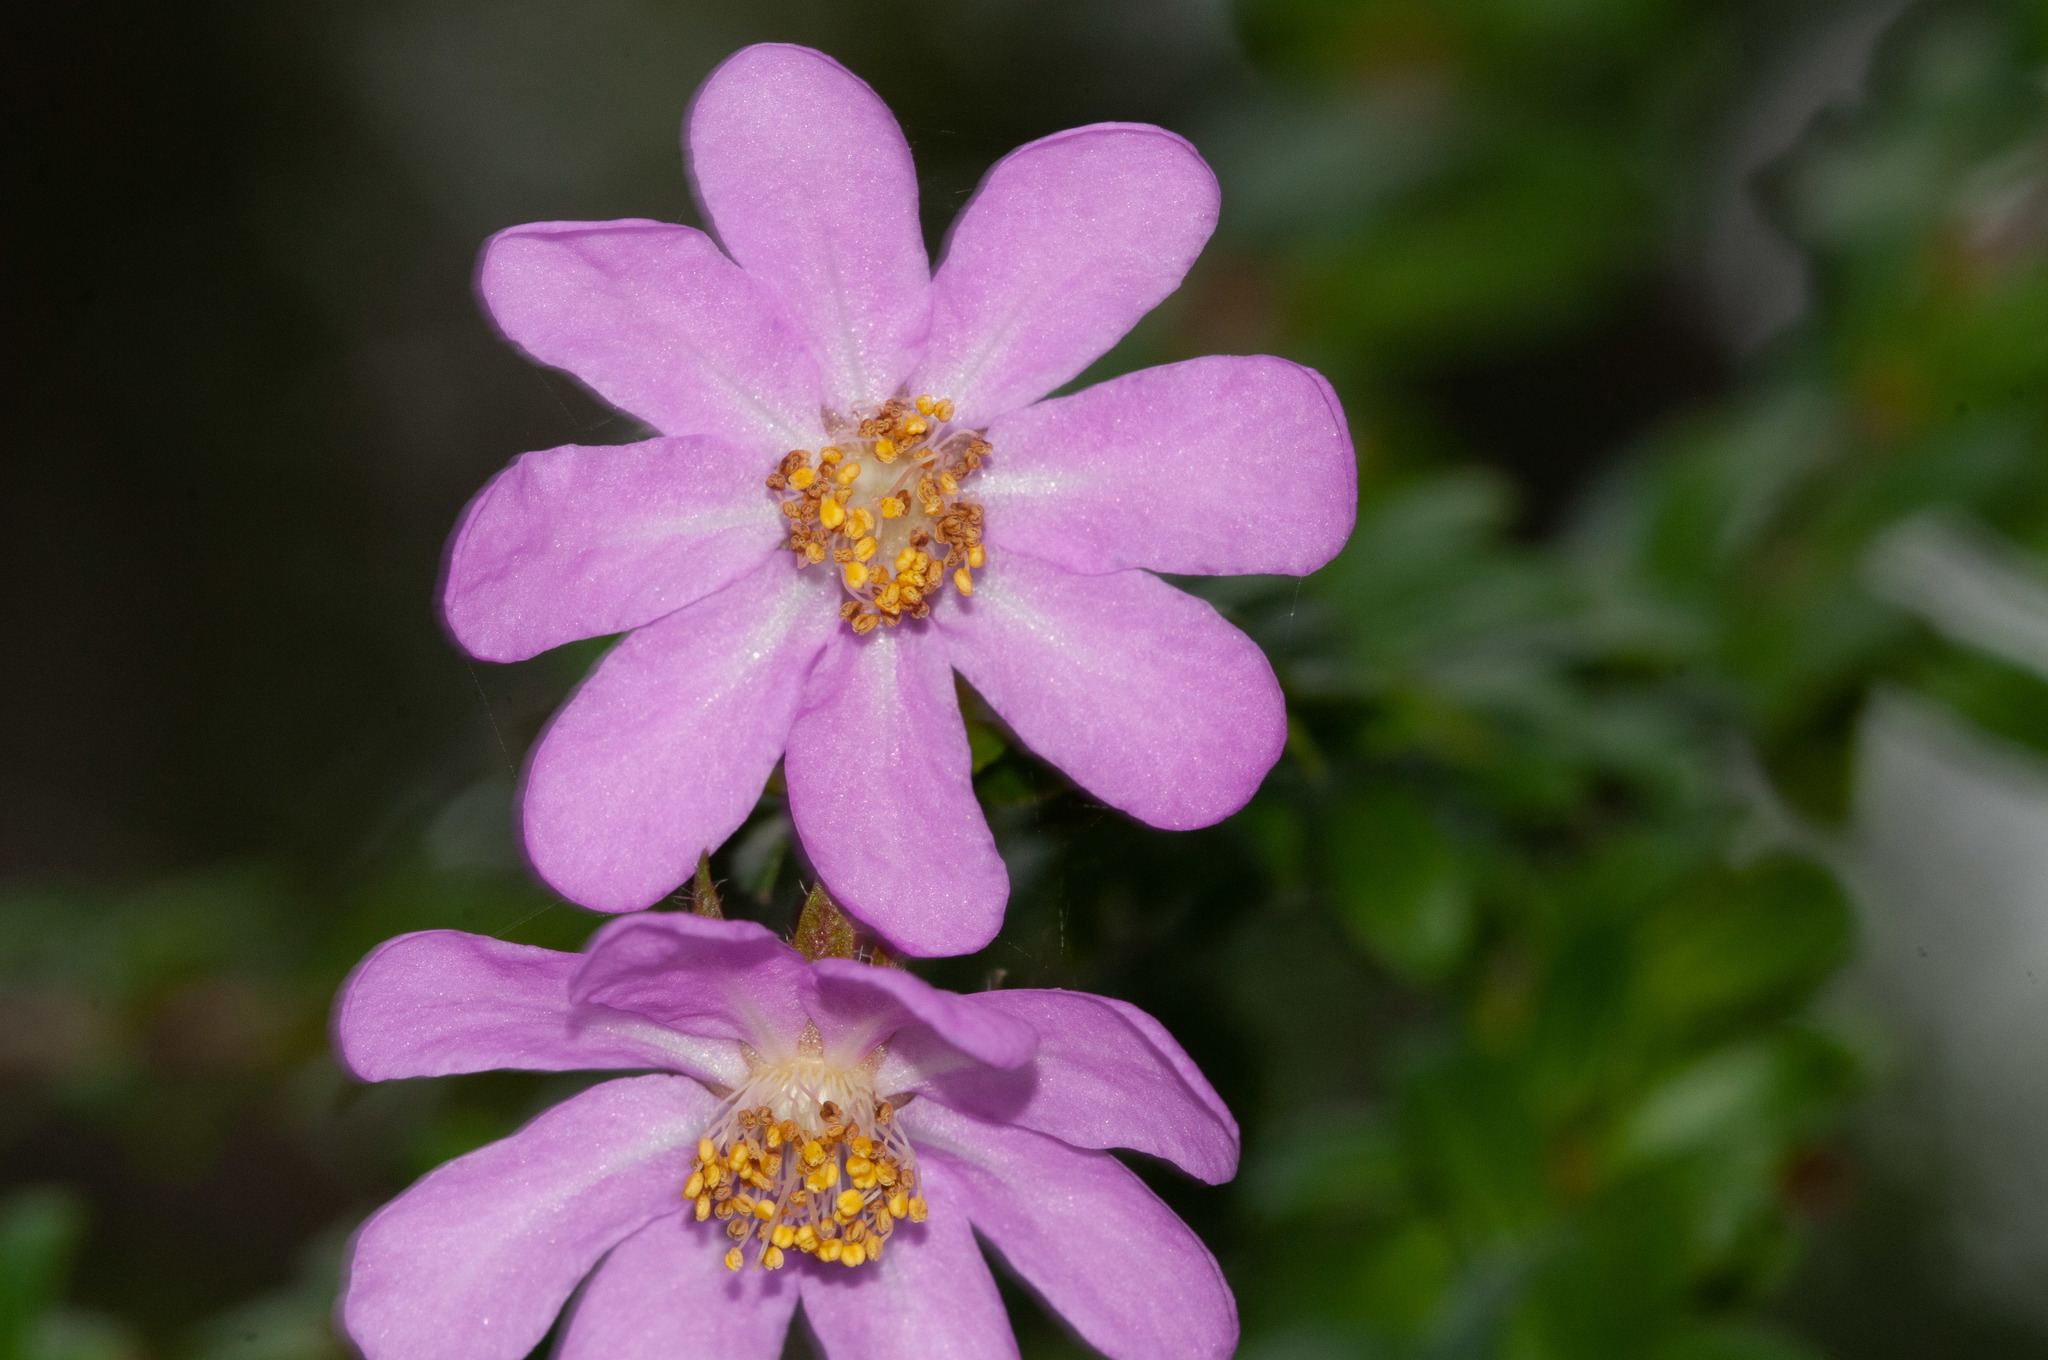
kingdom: Plantae
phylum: Tracheophyta
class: Magnoliopsida
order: Oxalidales
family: Cunoniaceae
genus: Bauera
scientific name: Bauera rubioides
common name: River-rose
